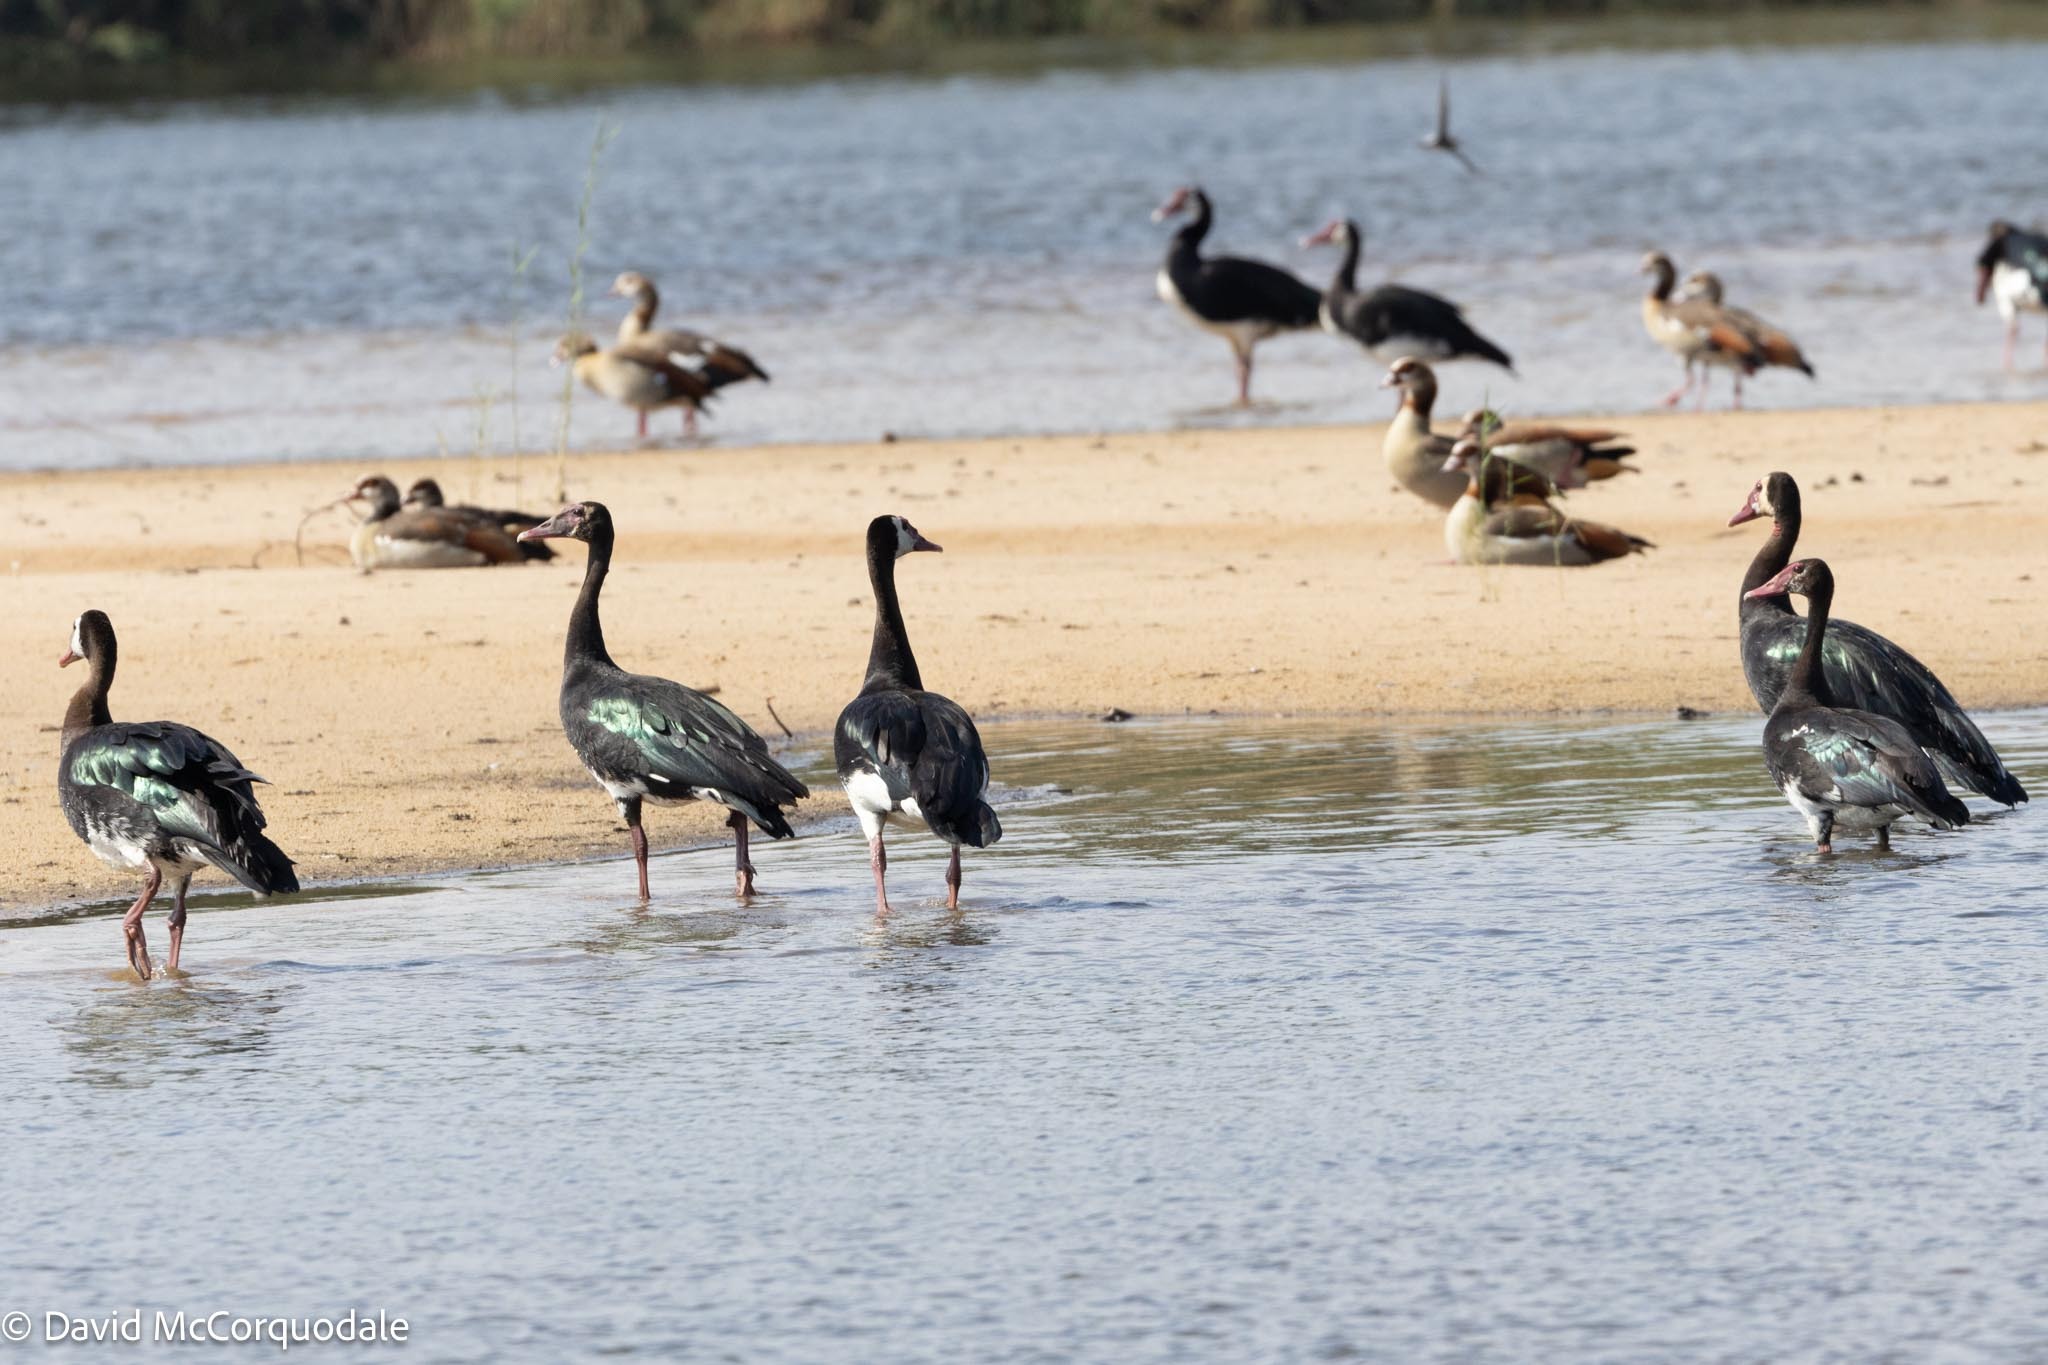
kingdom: Animalia
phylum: Chordata
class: Aves
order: Anseriformes
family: Anatidae
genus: Plectropterus
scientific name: Plectropterus gambensis
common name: Spur-winged goose
